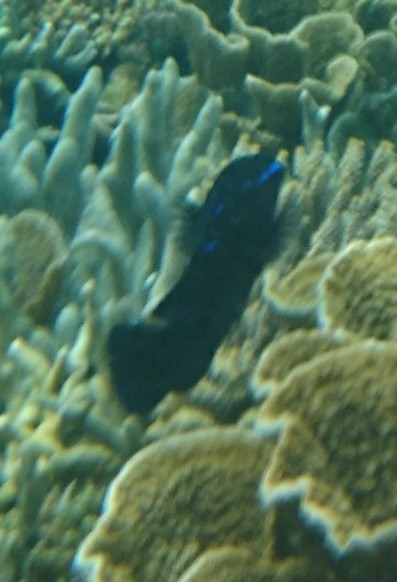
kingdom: Animalia
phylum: Chordata
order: Perciformes
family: Pomacentridae
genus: Neoglyphidodon
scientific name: Neoglyphidodon oxyodon
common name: Bluestreak damselfish
